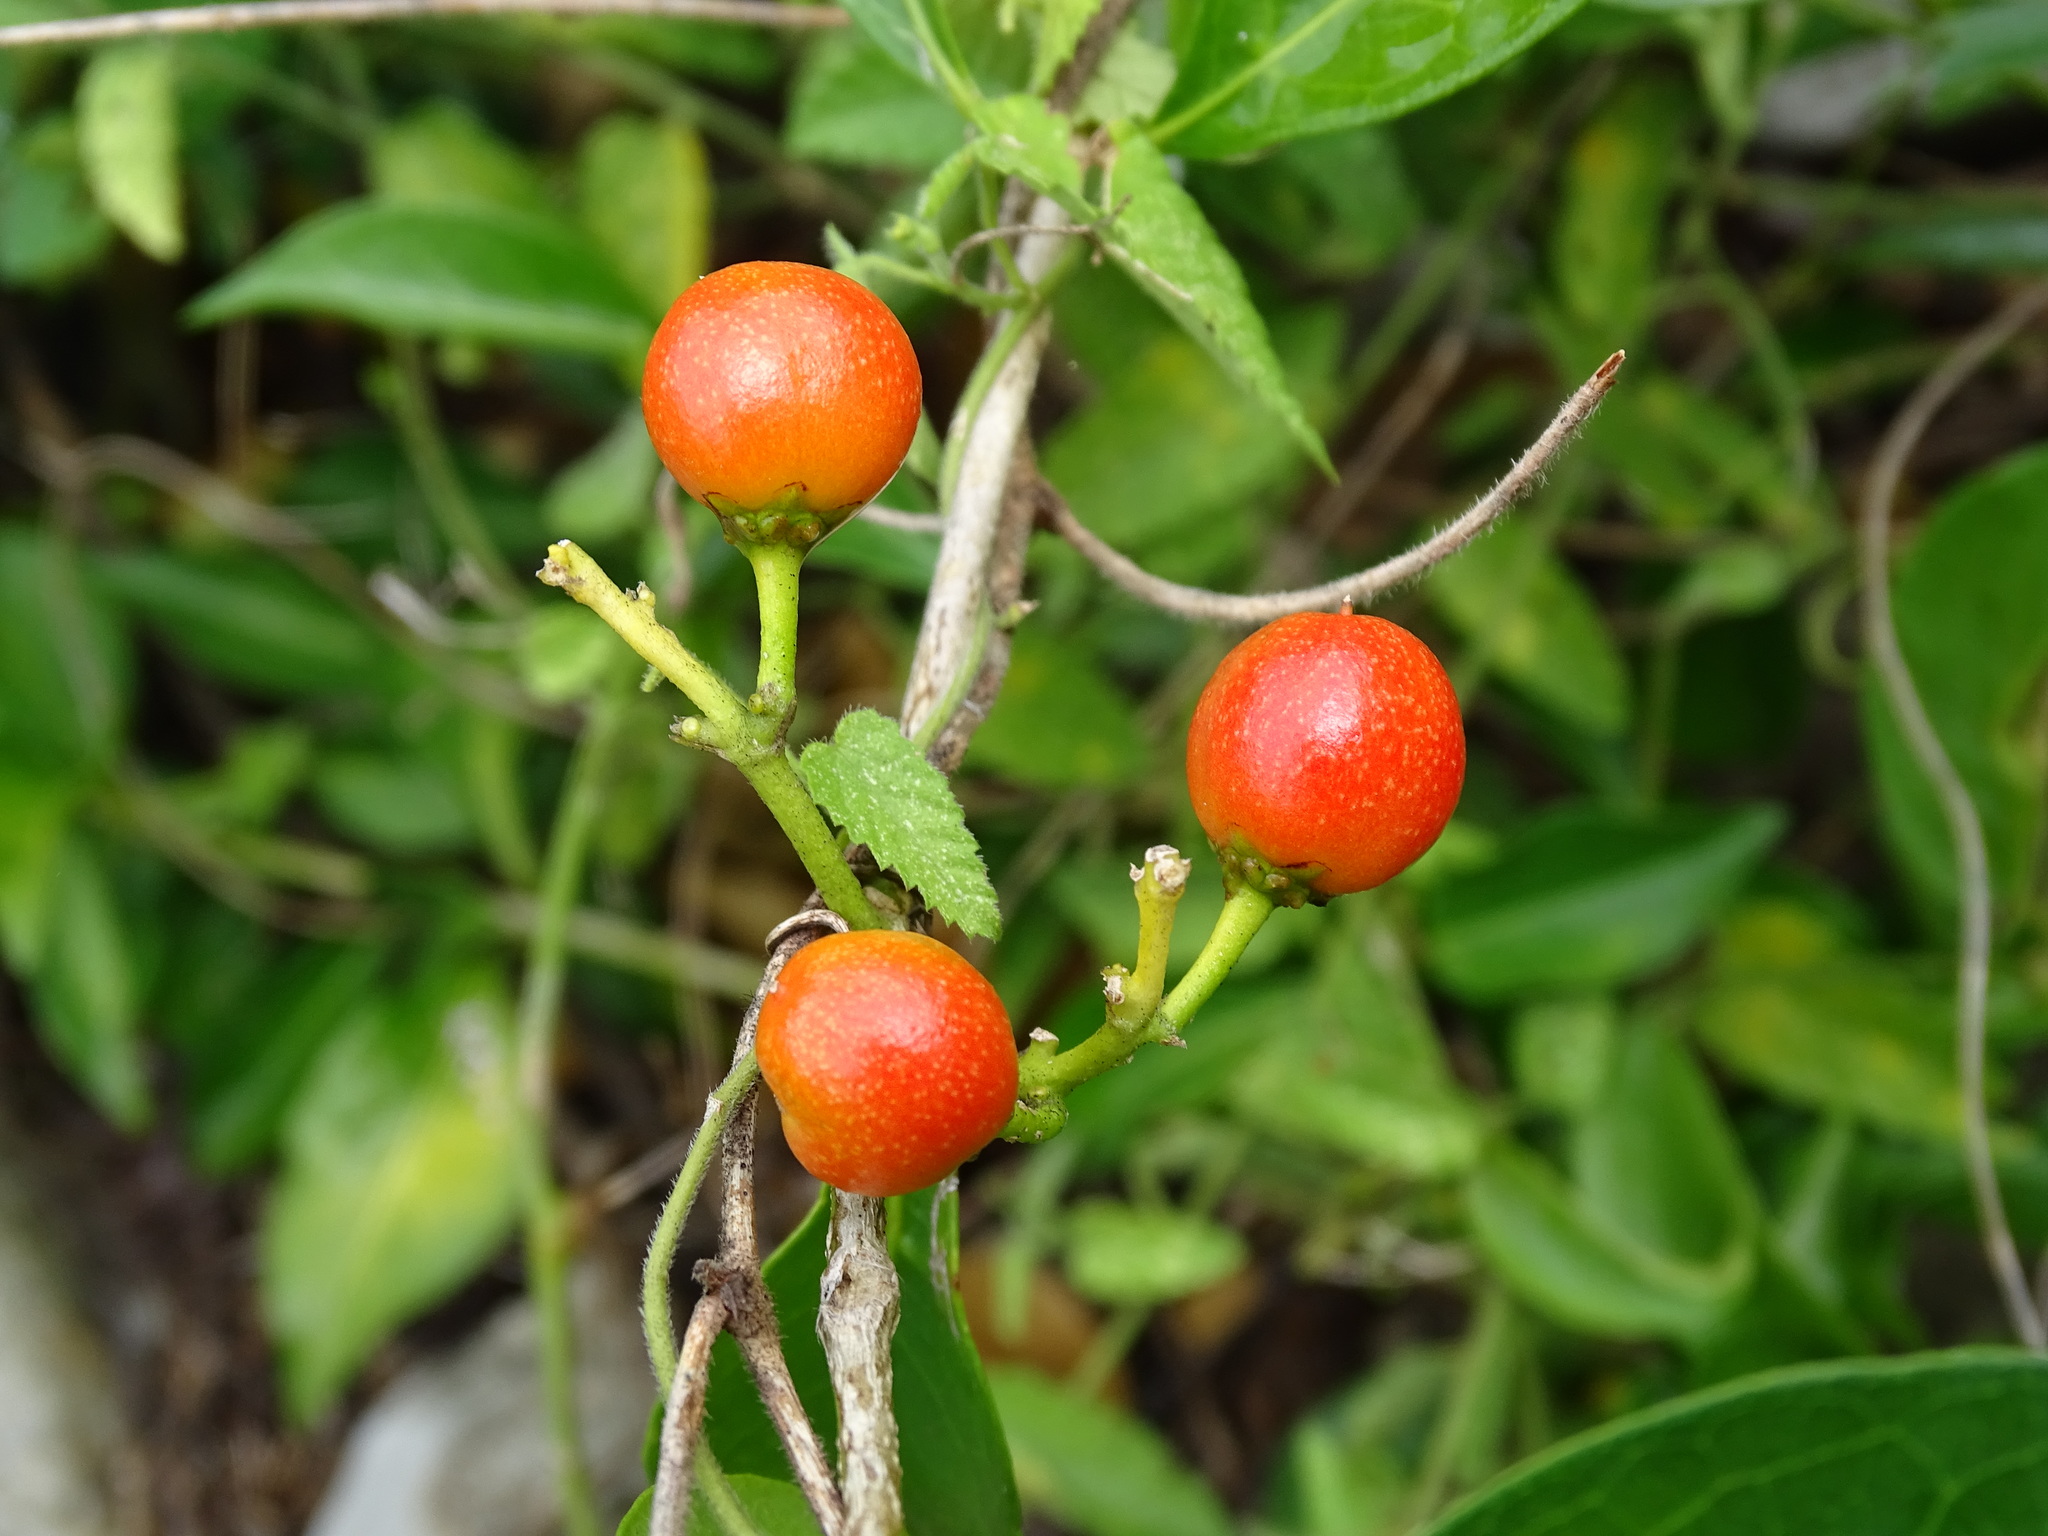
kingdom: Plantae
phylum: Tracheophyta
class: Magnoliopsida
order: Malpighiales
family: Malpighiaceae
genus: Bunchosia
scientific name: Bunchosia swartziana
